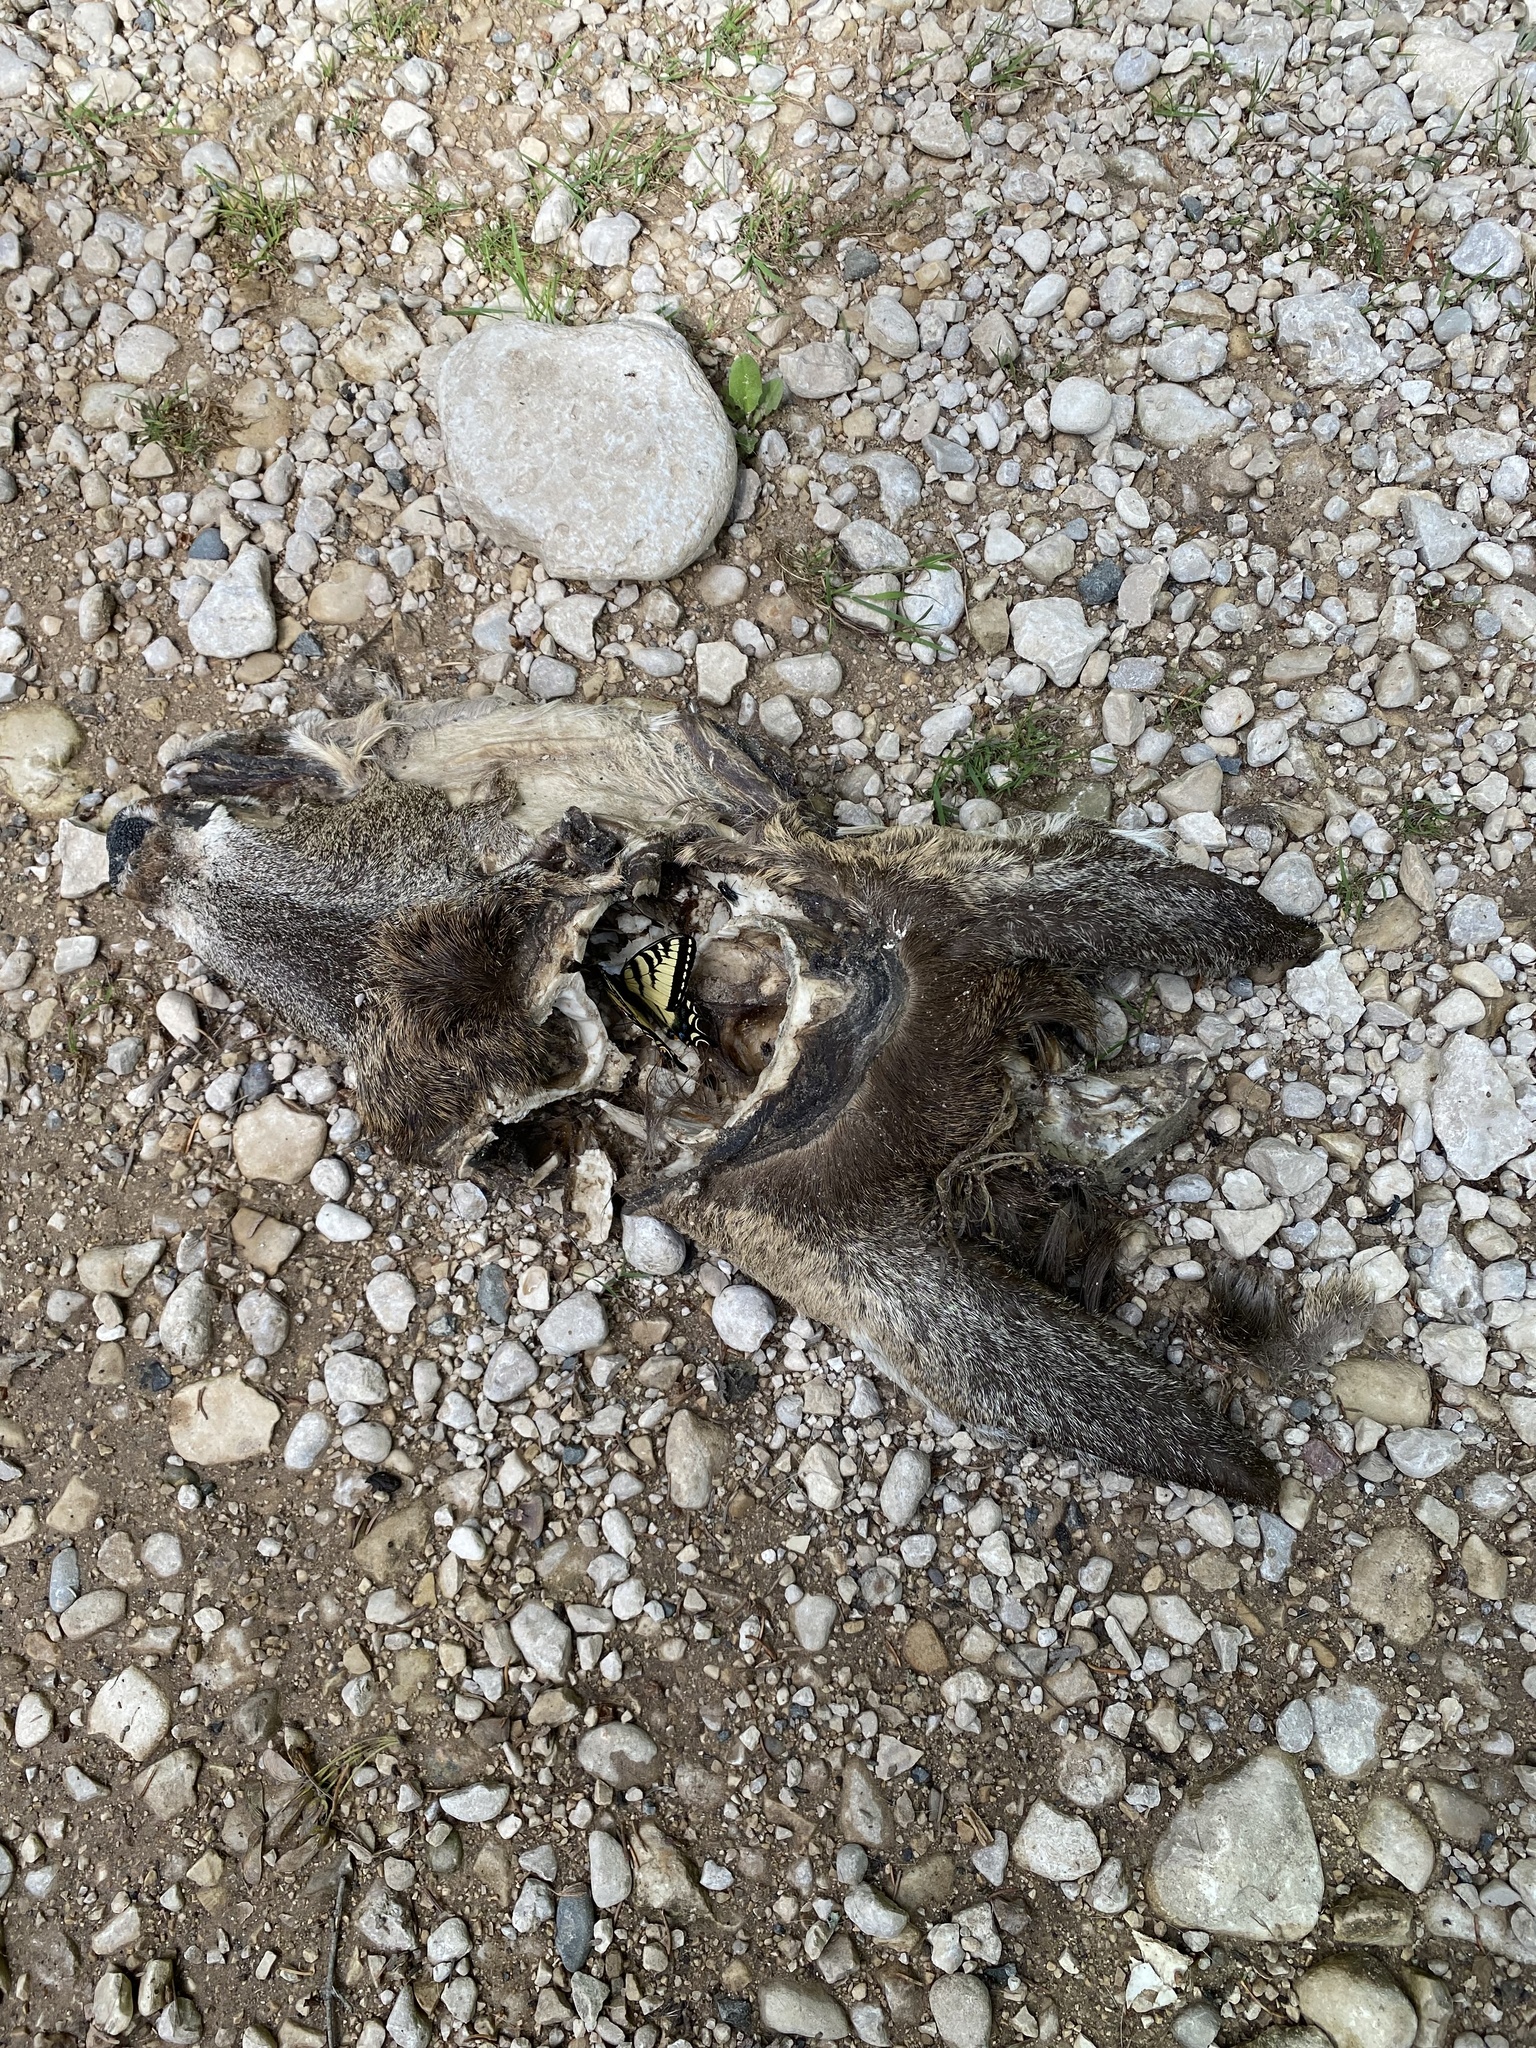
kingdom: Animalia
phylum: Chordata
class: Mammalia
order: Artiodactyla
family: Cervidae
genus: Odocoileus
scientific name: Odocoileus virginianus
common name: White-tailed deer
